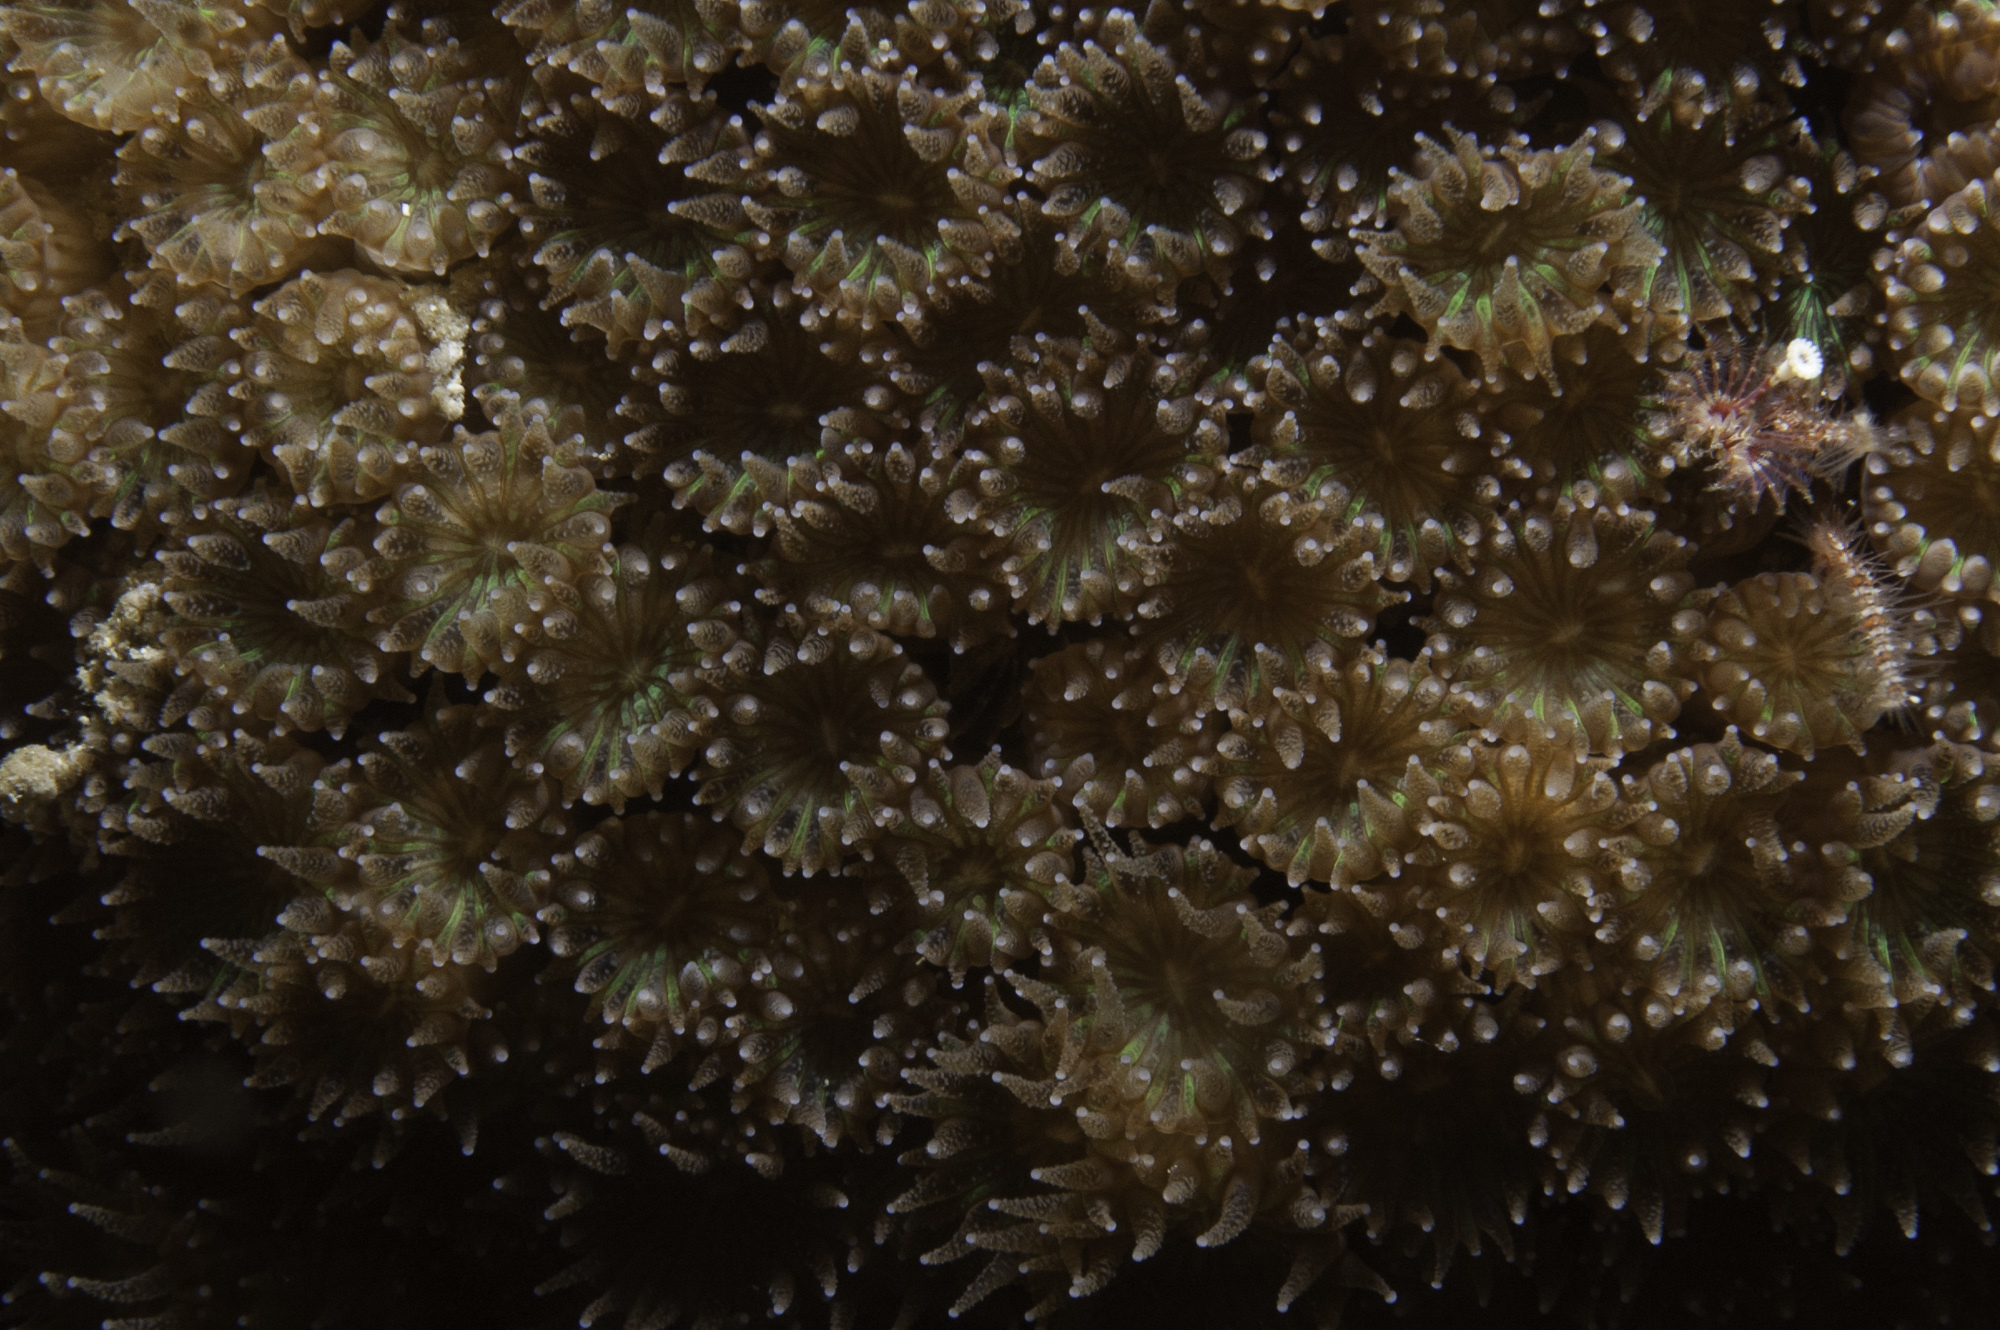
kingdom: Animalia
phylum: Cnidaria
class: Anthozoa
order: Scleractinia
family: Cladocoridae
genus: Cladocora
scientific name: Cladocora caespitosa
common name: Cladocora
